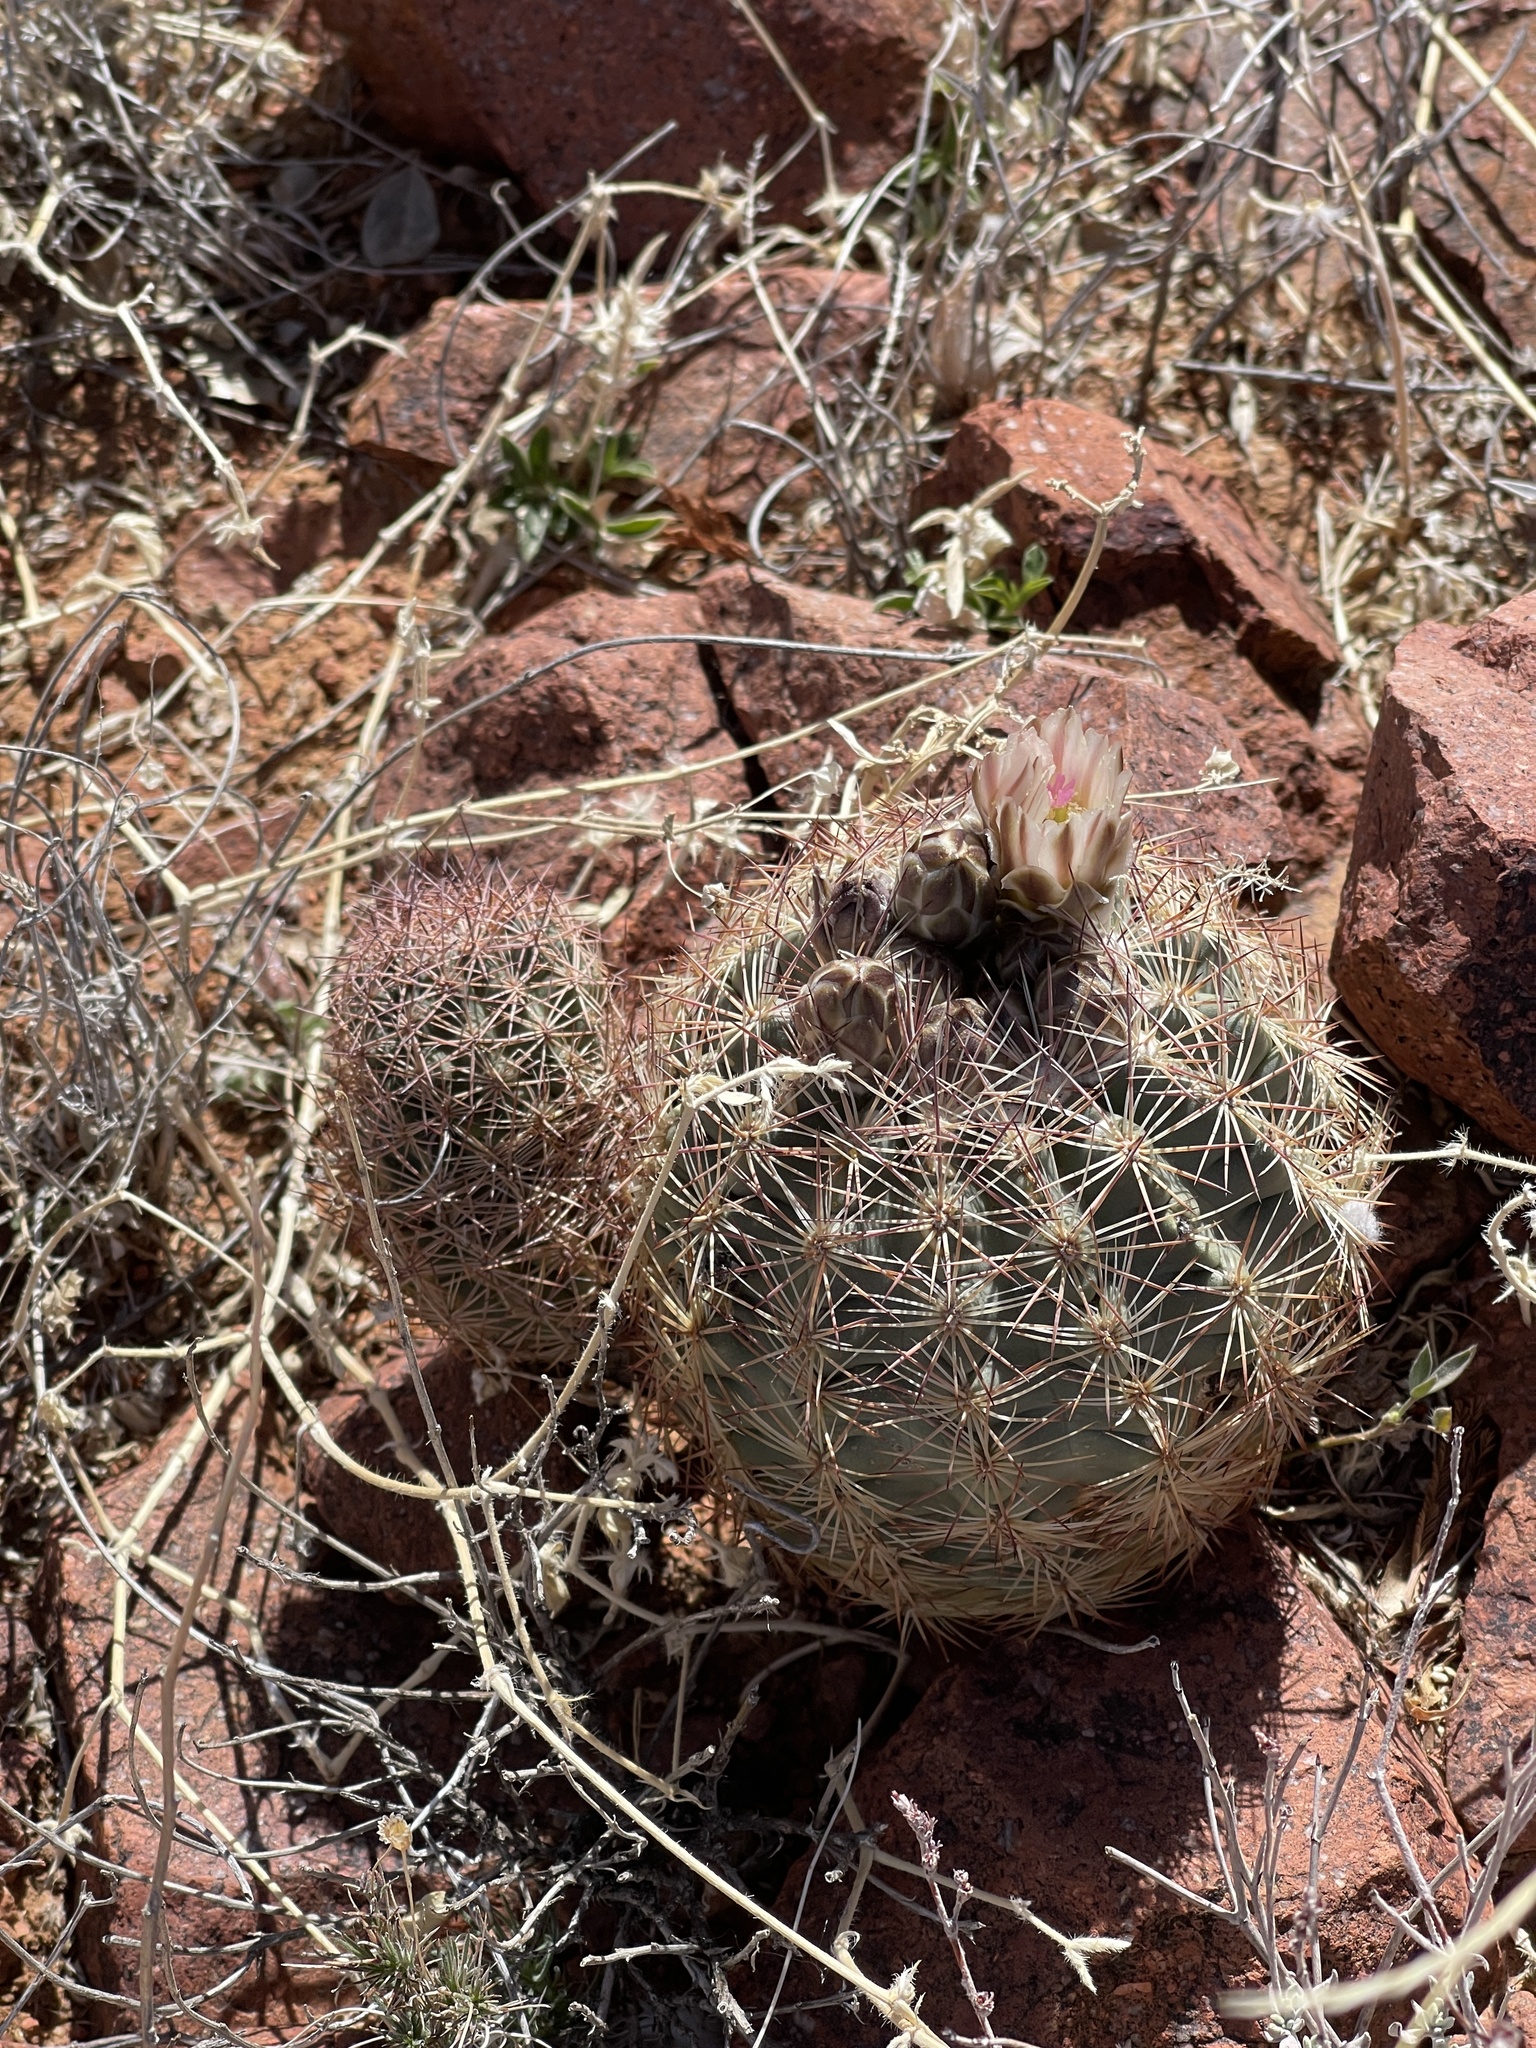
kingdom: Plantae
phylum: Tracheophyta
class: Magnoliopsida
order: Caryophyllales
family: Cactaceae
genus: Sclerocactus
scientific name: Sclerocactus intertextus
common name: White fish-hook cactus
